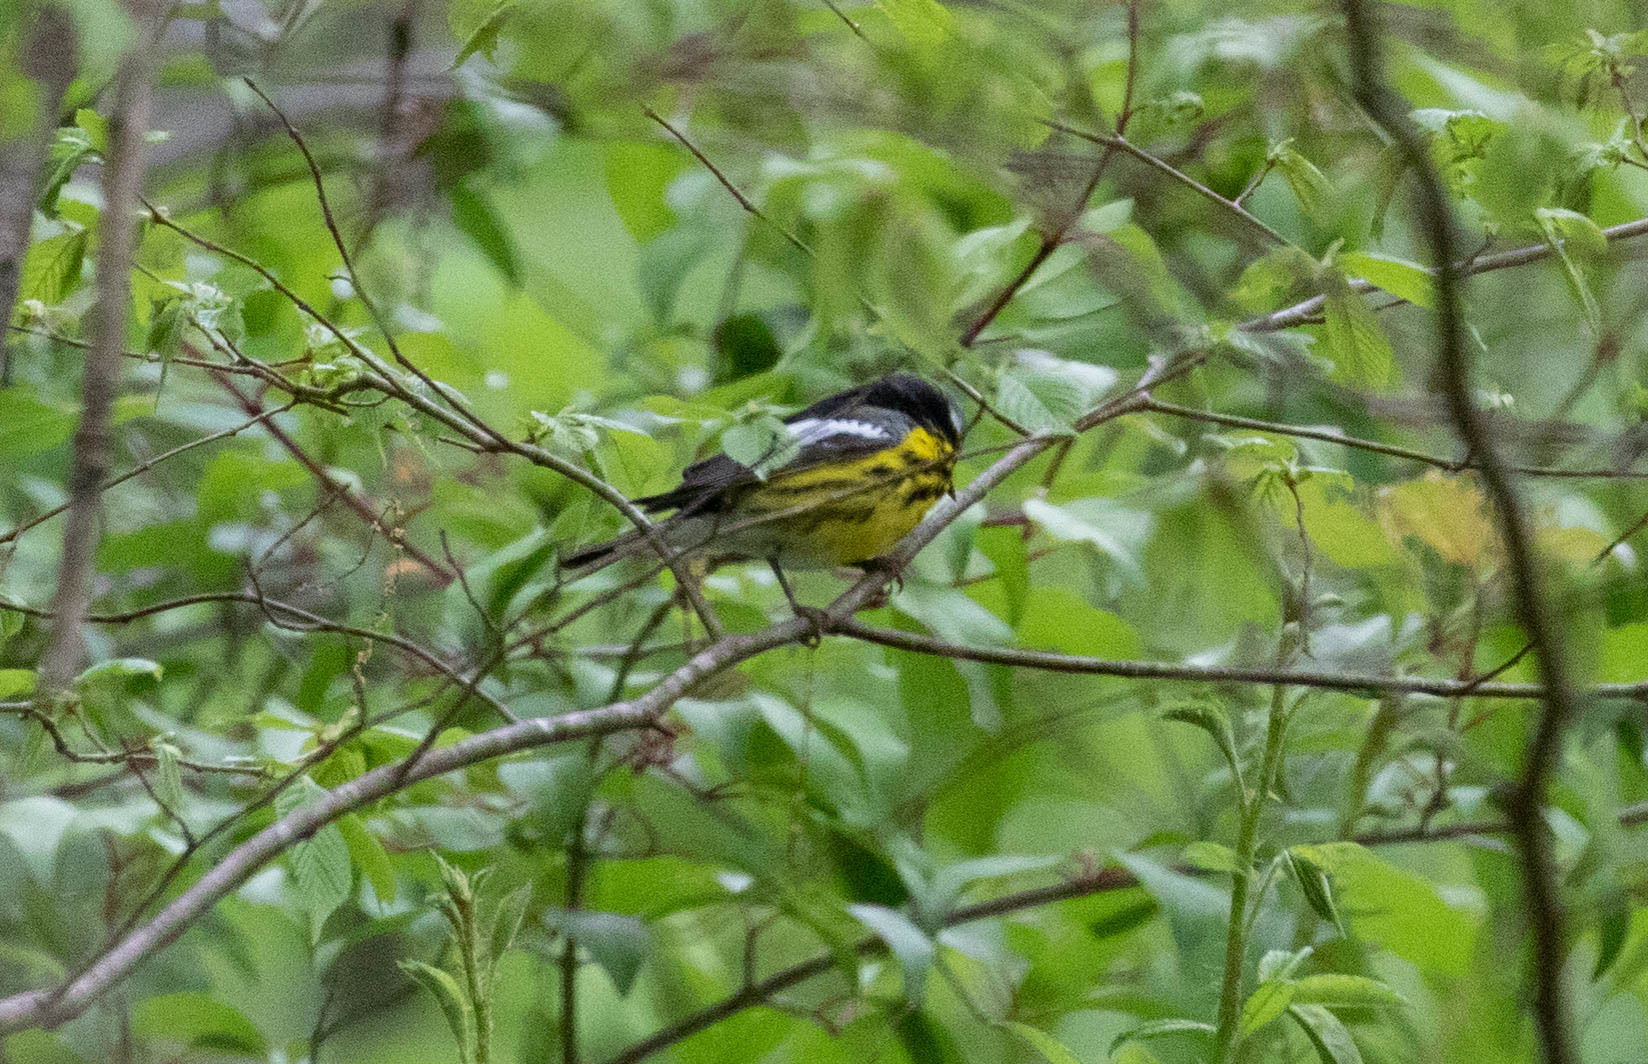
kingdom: Animalia
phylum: Chordata
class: Aves
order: Passeriformes
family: Parulidae
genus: Setophaga
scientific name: Setophaga magnolia
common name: Magnolia warbler
